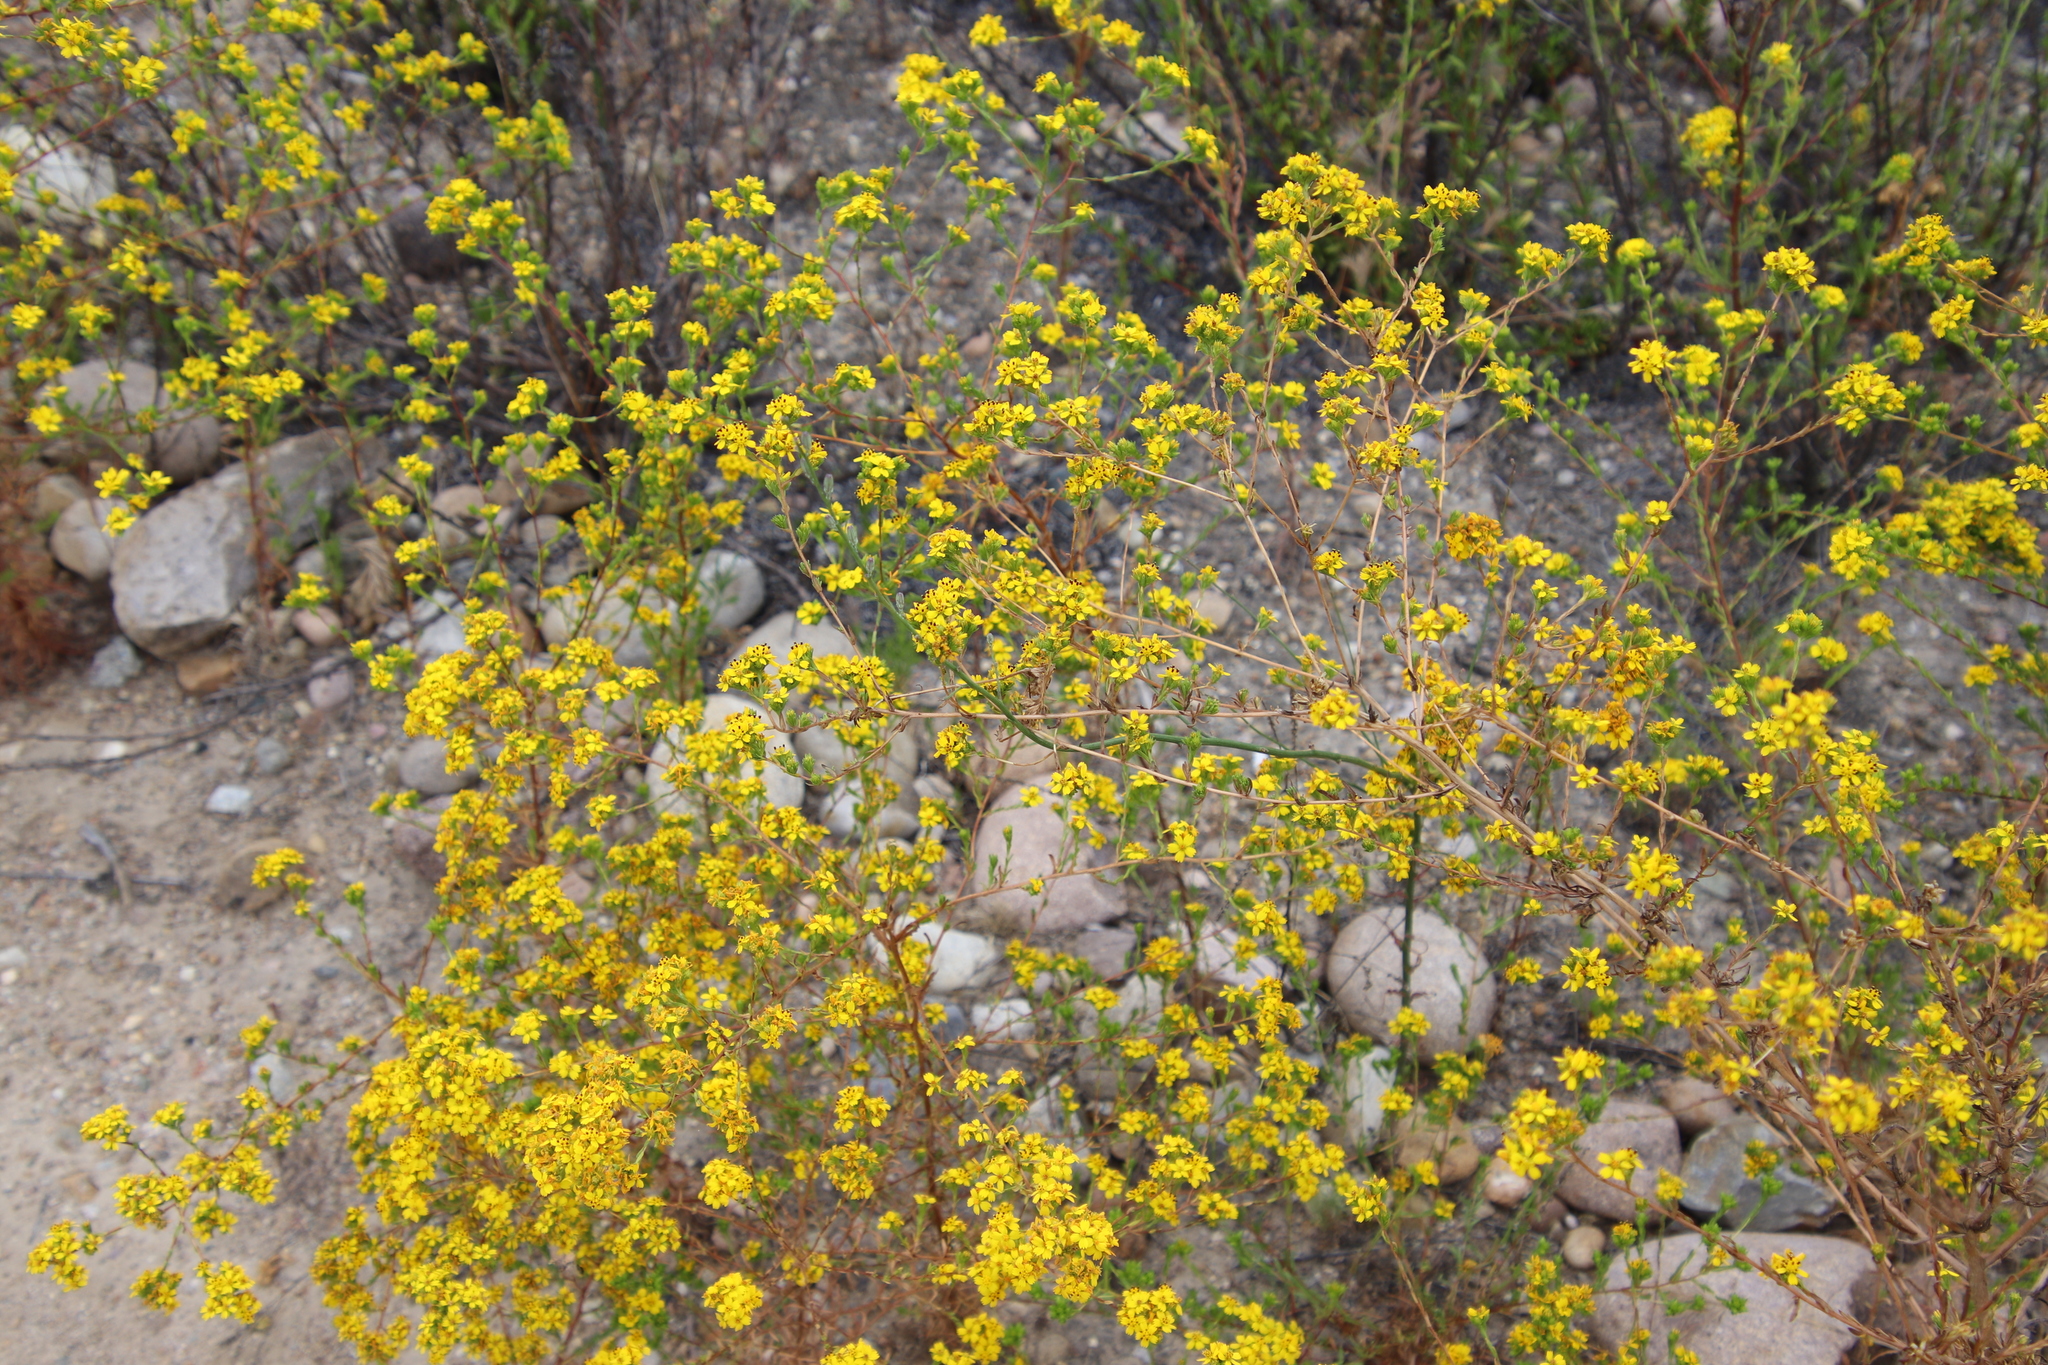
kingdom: Plantae
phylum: Tracheophyta
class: Magnoliopsida
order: Asterales
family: Asteraceae
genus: Deinandra
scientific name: Deinandra fasciculata
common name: Clustered tarweed
